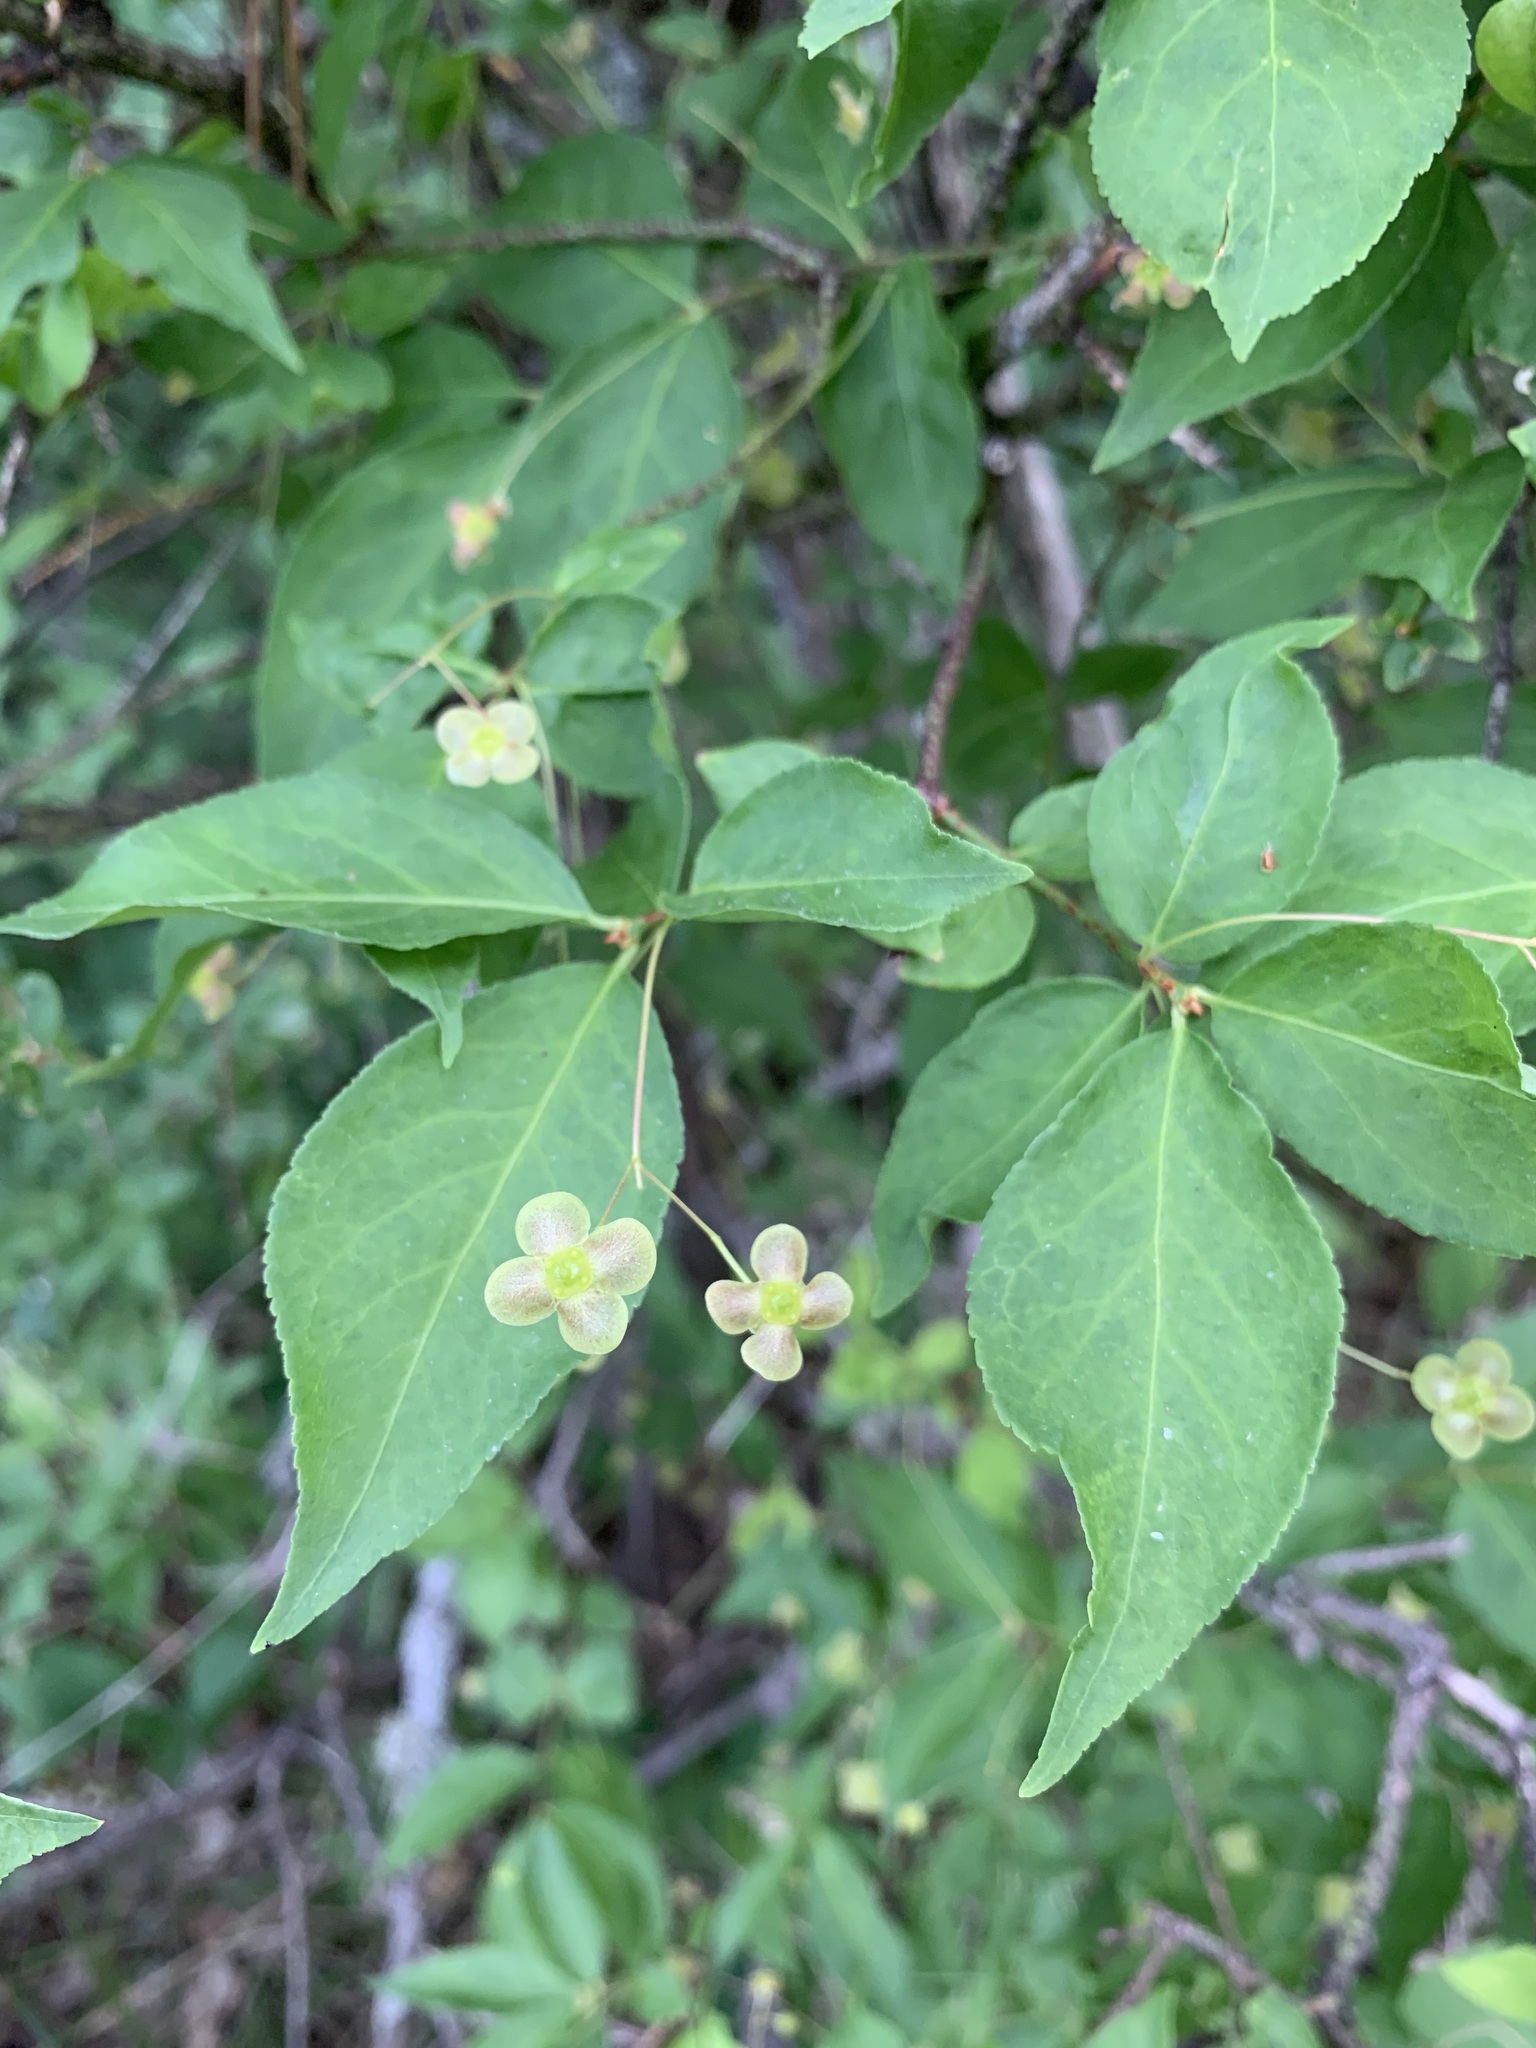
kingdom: Plantae
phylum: Tracheophyta
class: Magnoliopsida
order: Celastrales
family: Celastraceae
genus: Euonymus
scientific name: Euonymus verrucosus
